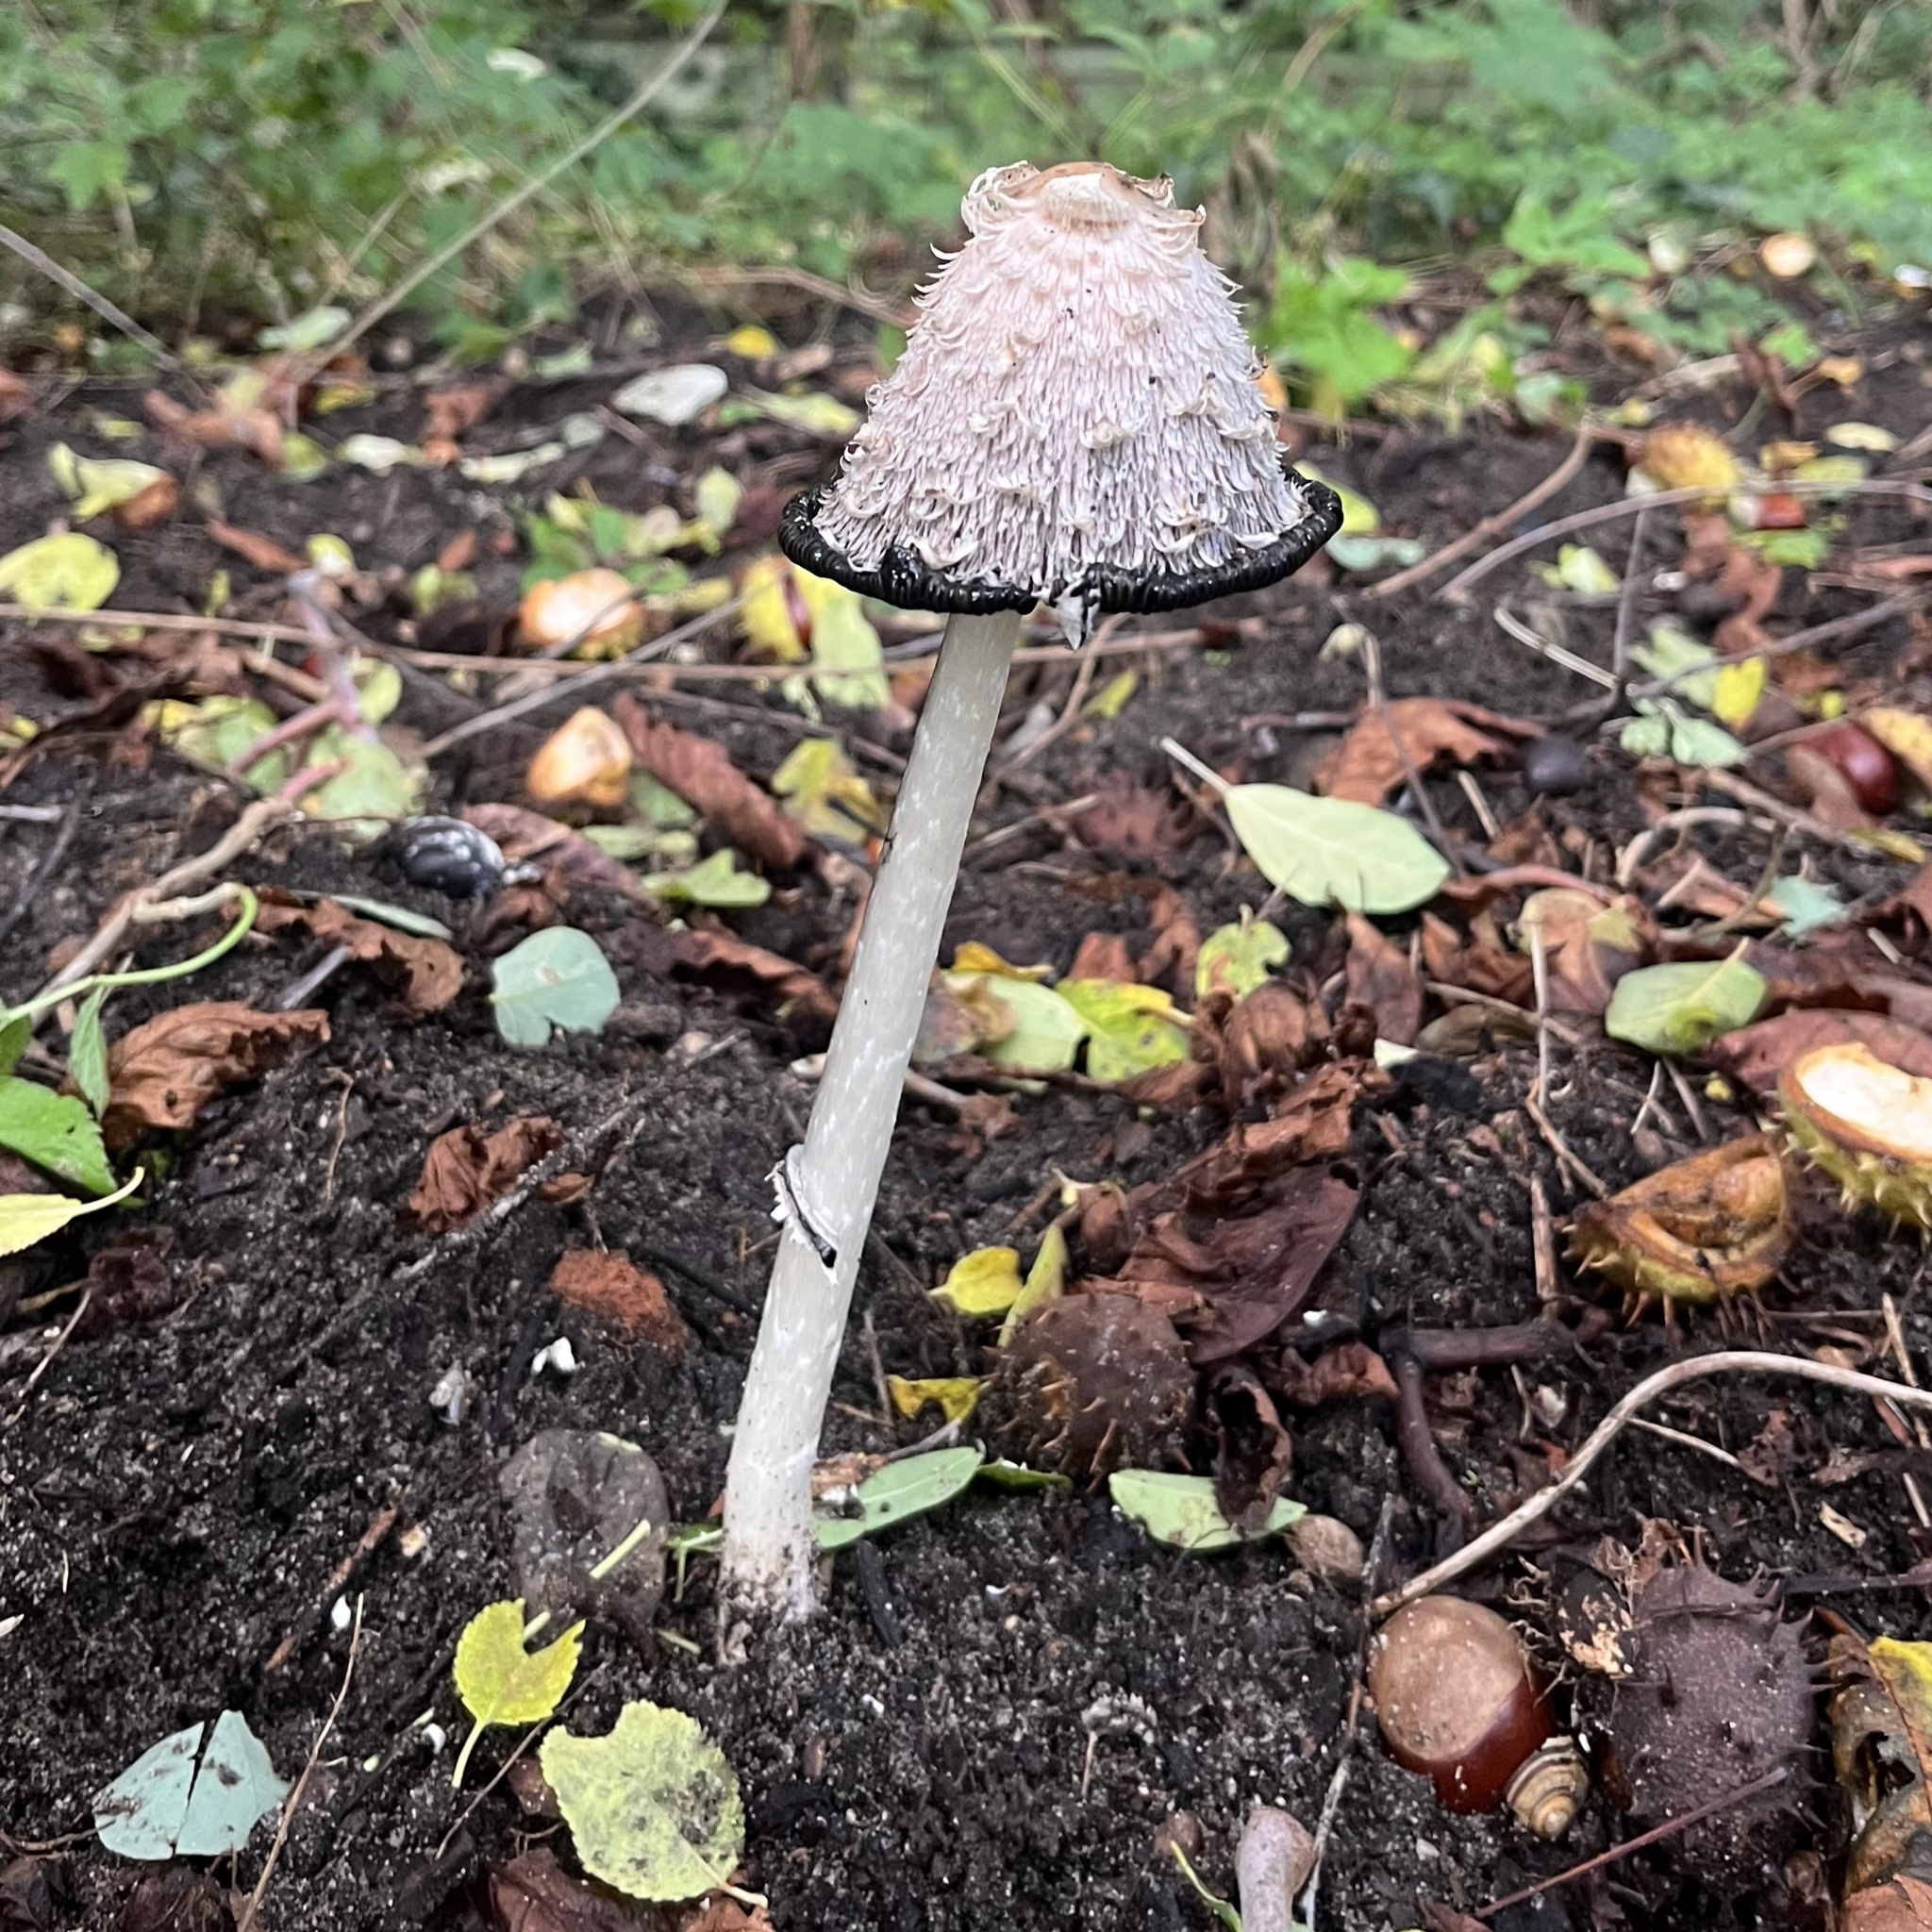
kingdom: Fungi
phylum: Basidiomycota
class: Agaricomycetes
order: Agaricales
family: Agaricaceae
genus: Coprinus
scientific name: Coprinus comatus
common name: Lawyer's wig
